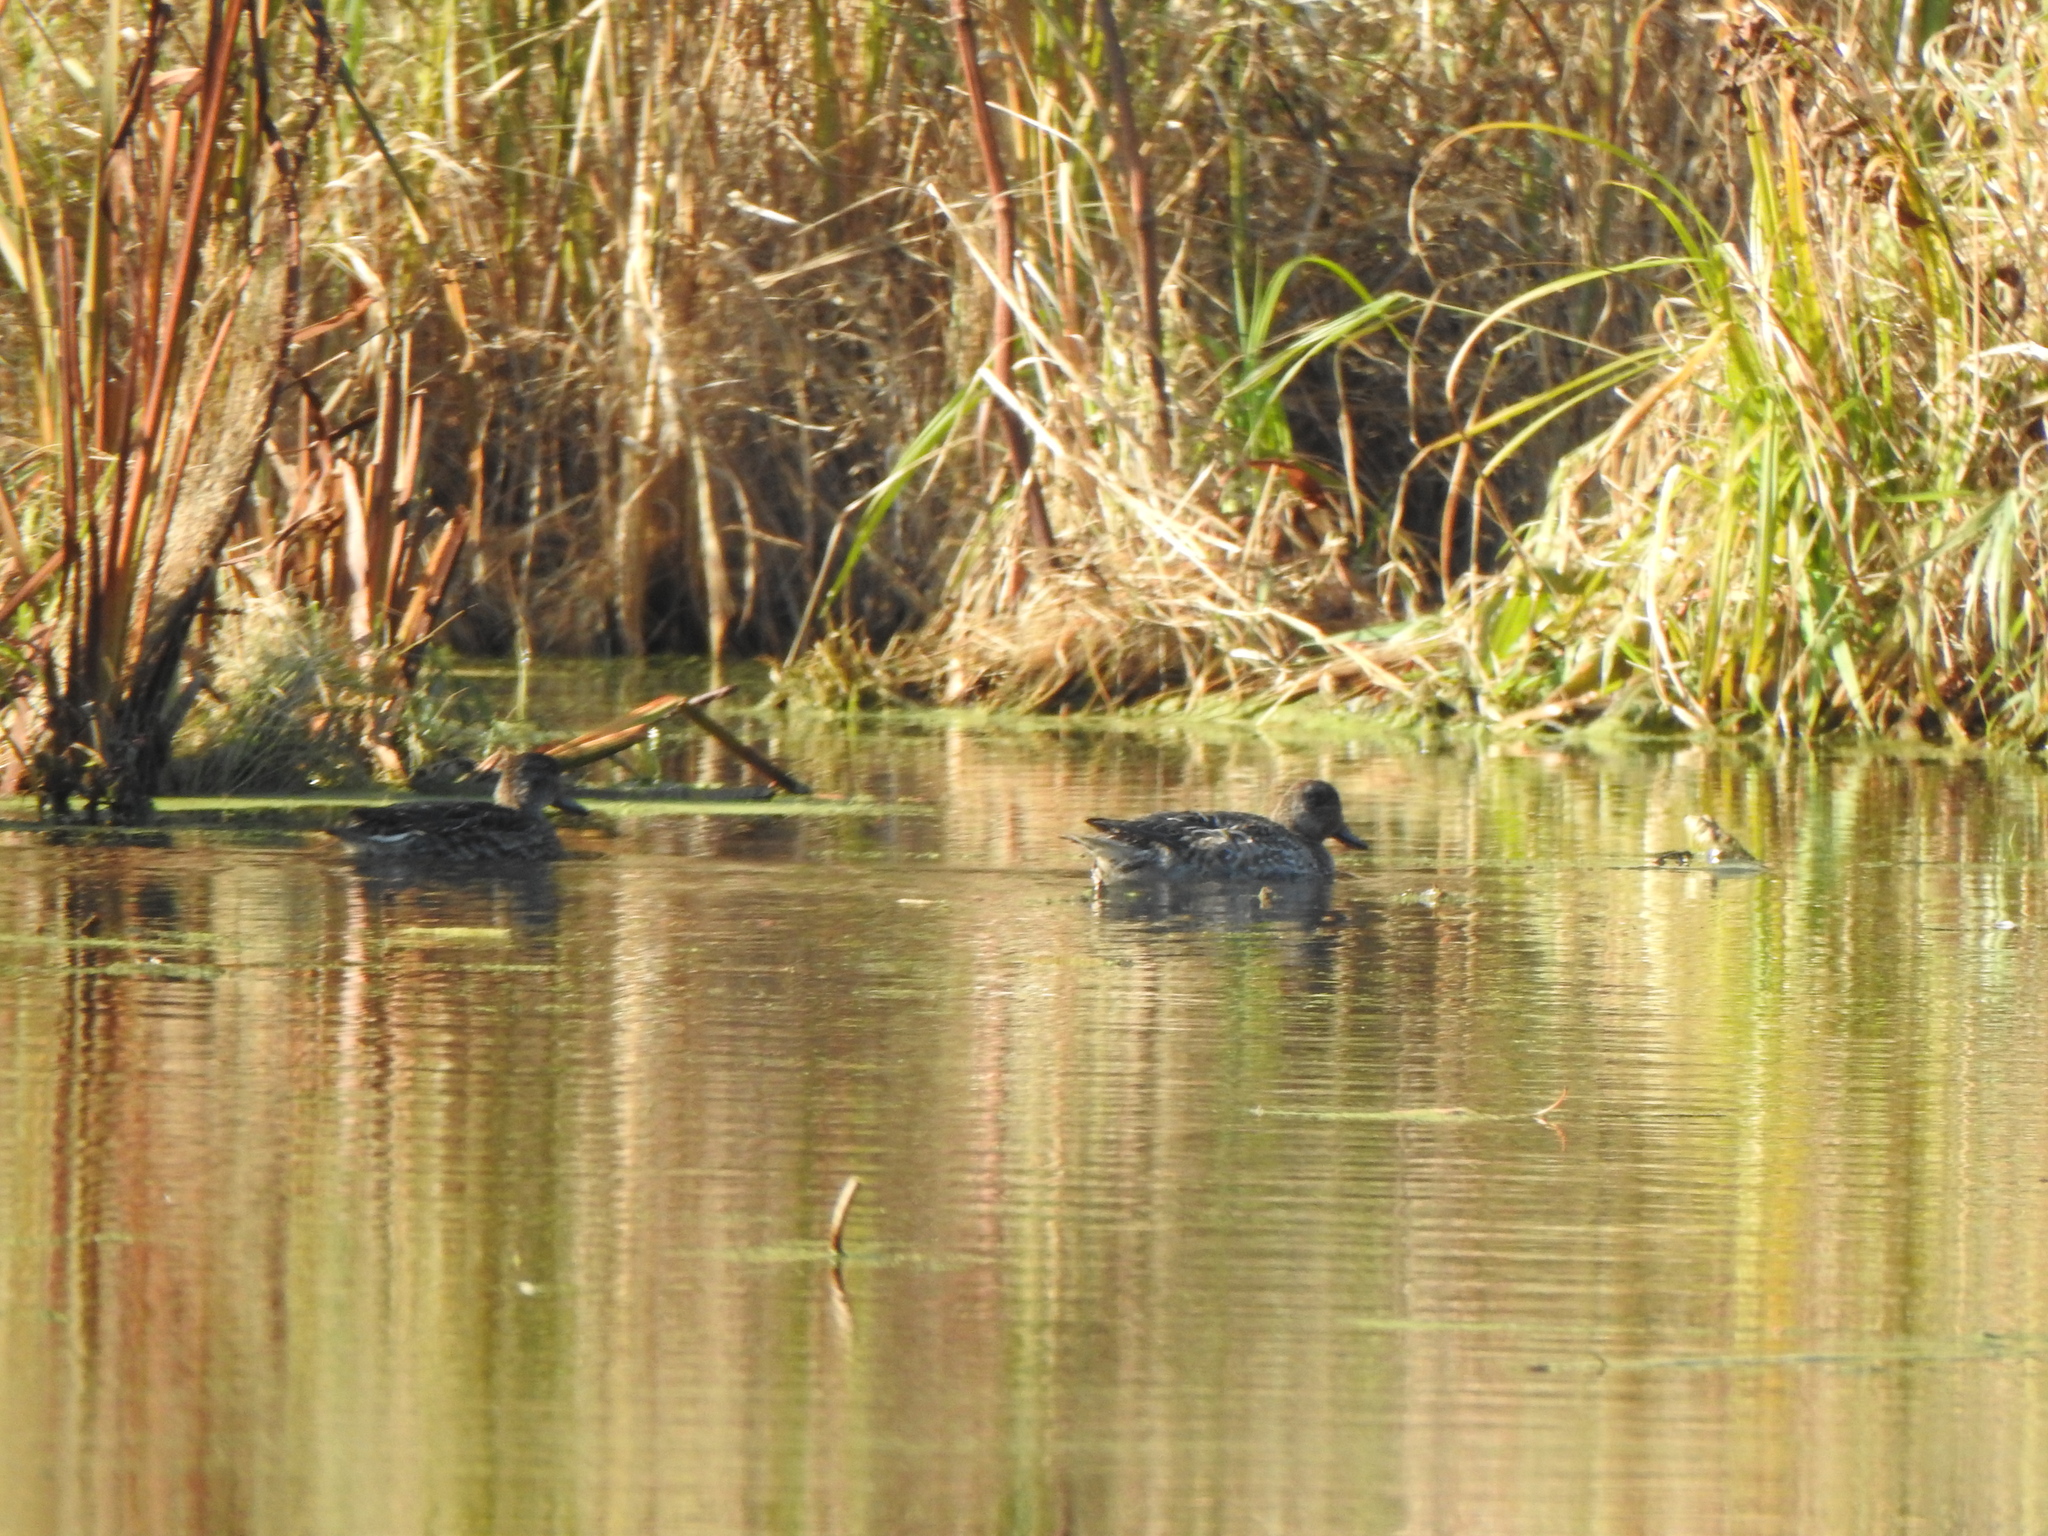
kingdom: Animalia
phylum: Chordata
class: Aves
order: Anseriformes
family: Anatidae
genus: Anas
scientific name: Anas crecca
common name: Eurasian teal
